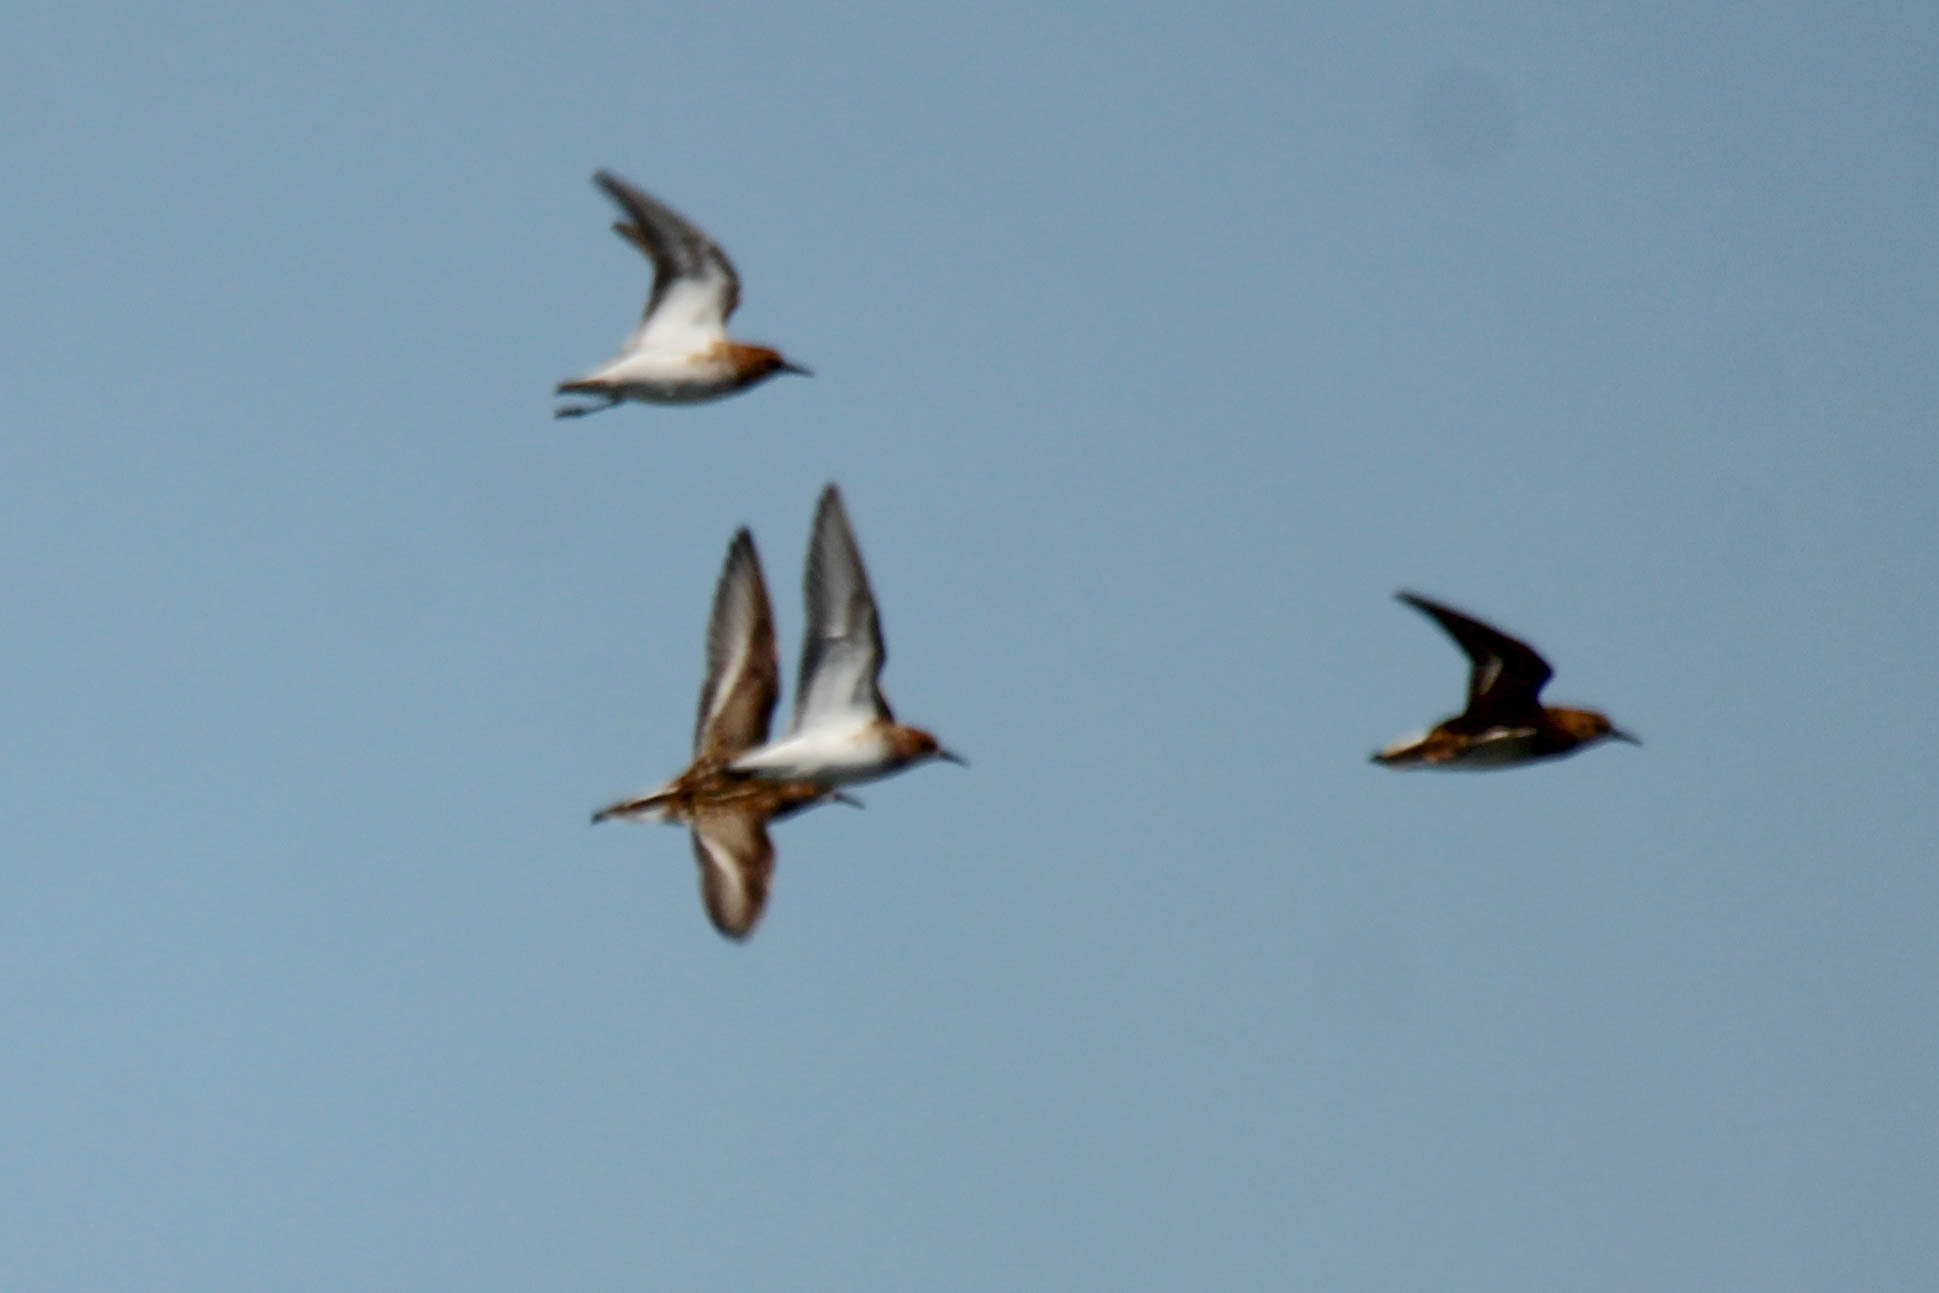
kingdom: Animalia
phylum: Chordata
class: Aves
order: Charadriiformes
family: Scolopacidae
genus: Calidris
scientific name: Calidris minuta
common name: Little stint
